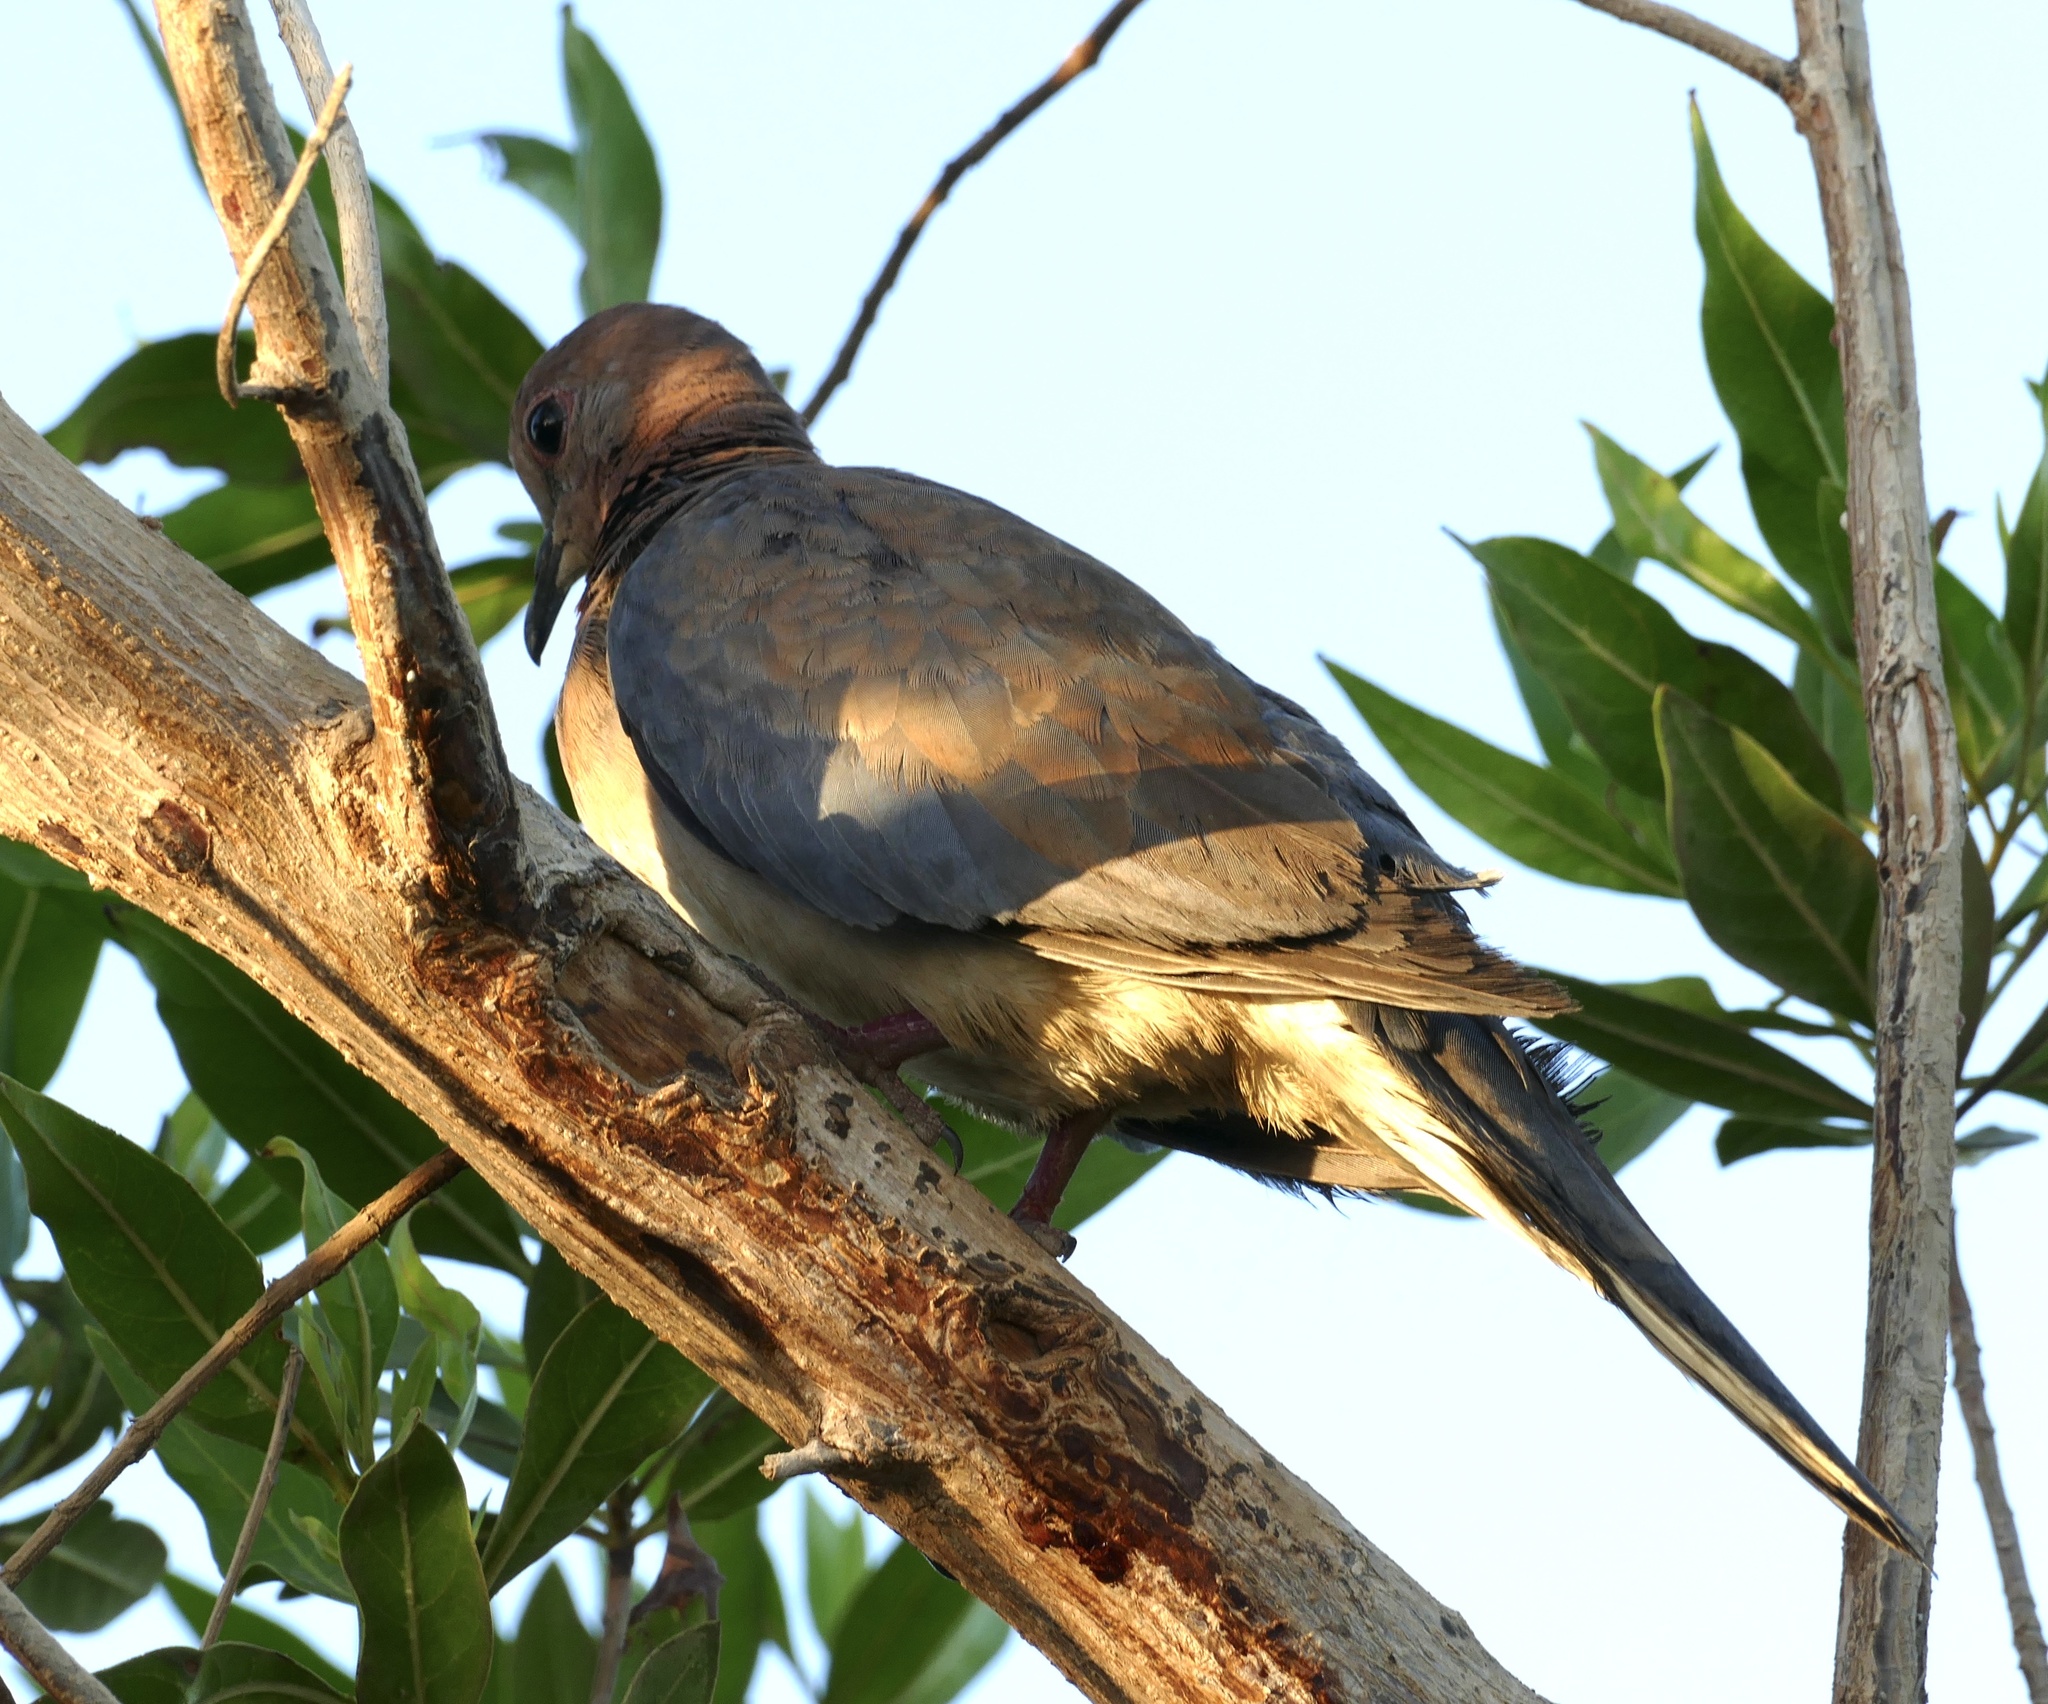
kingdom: Animalia
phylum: Chordata
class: Aves
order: Columbiformes
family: Columbidae
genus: Spilopelia
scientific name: Spilopelia senegalensis
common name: Laughing dove
